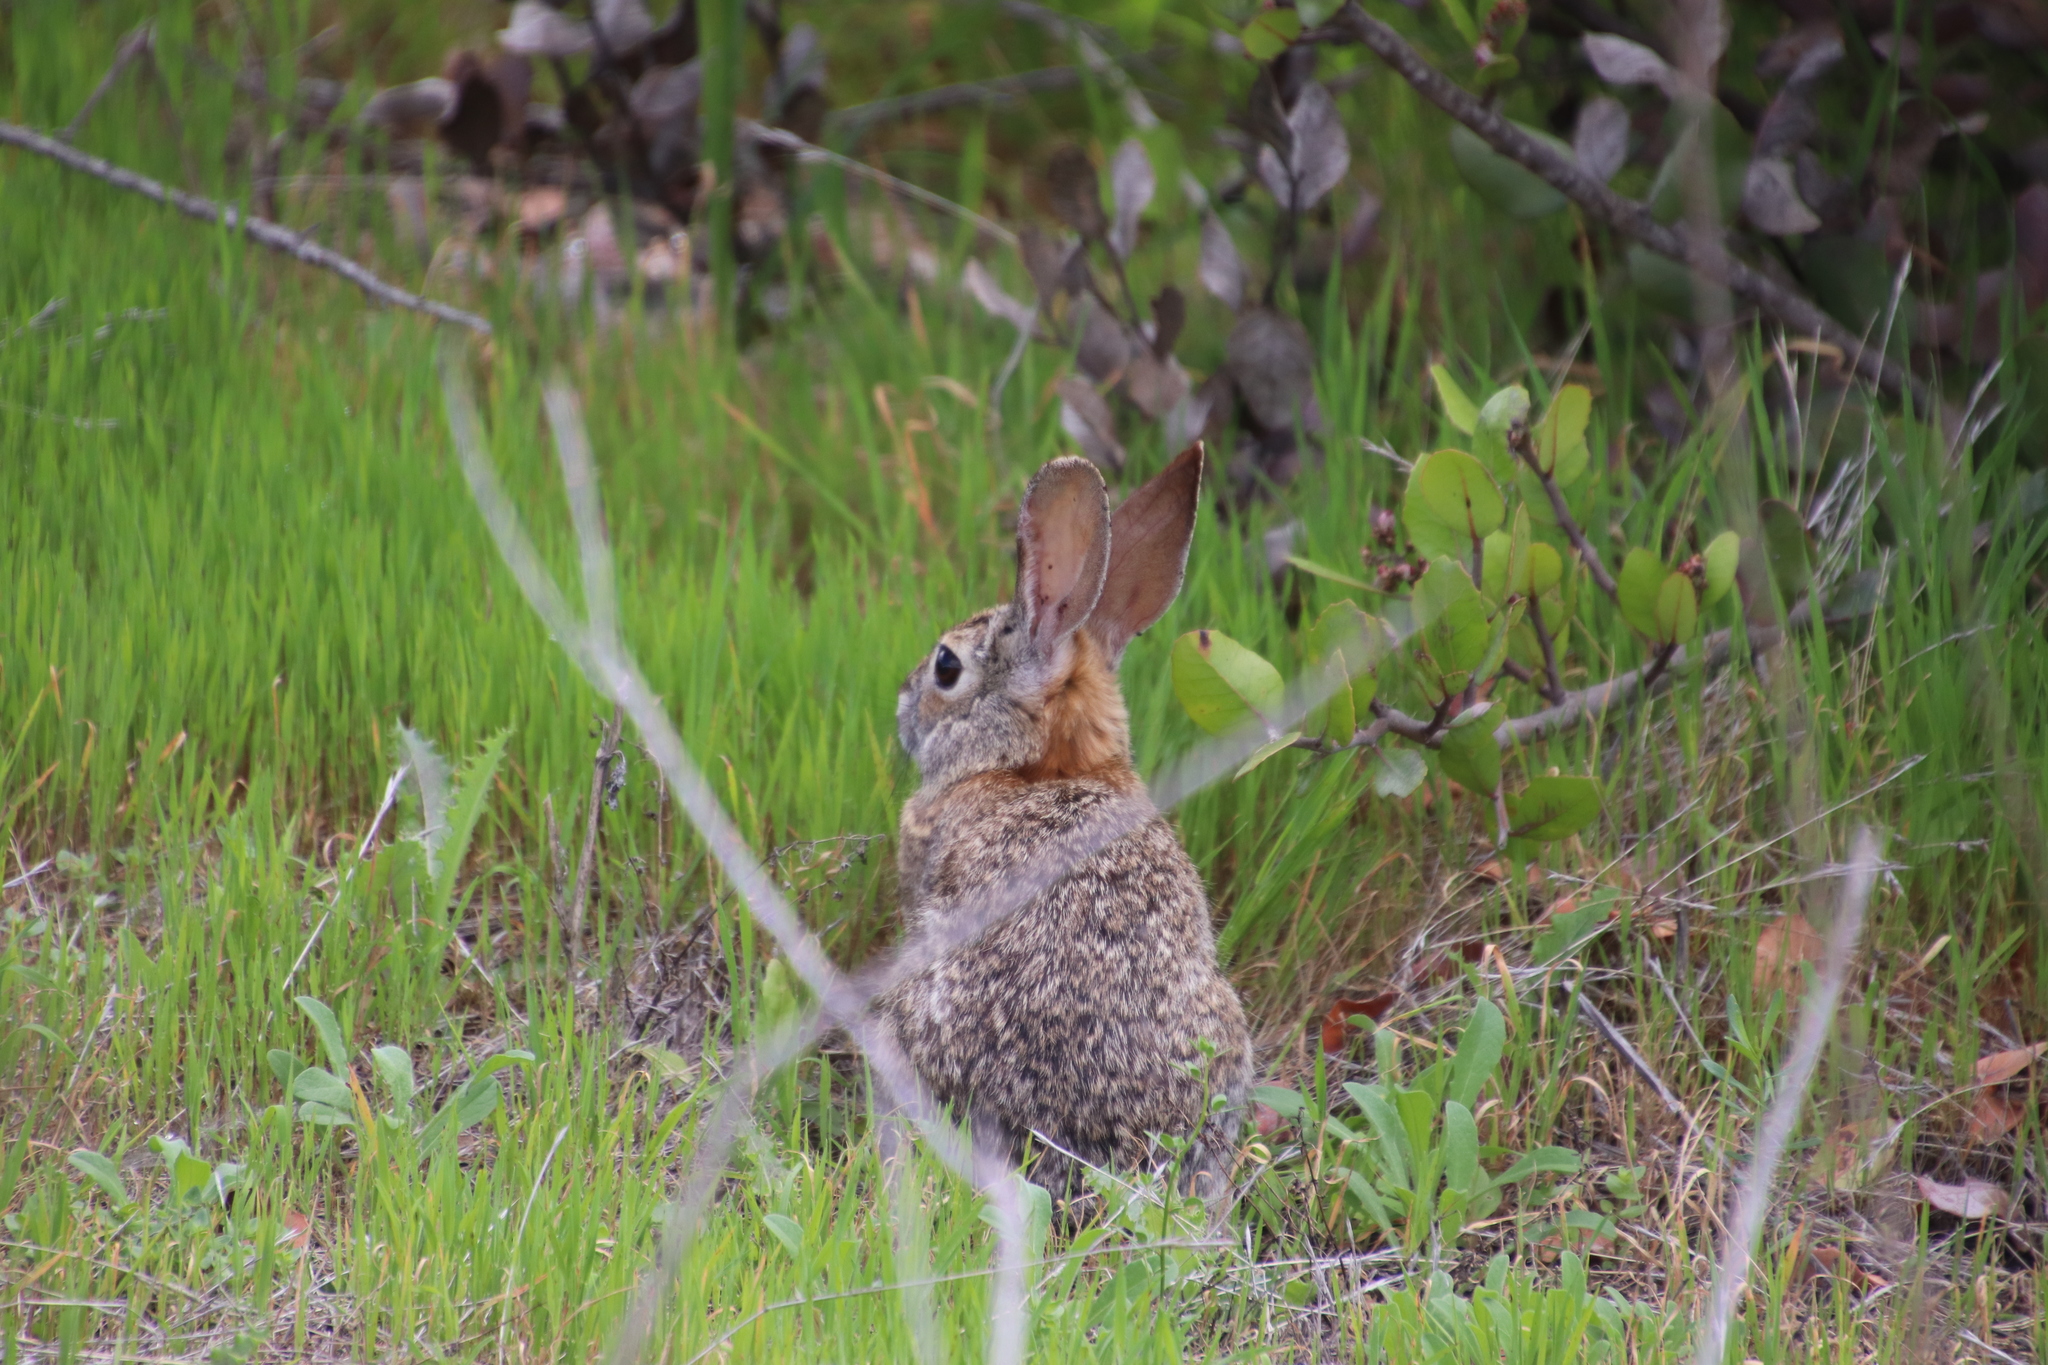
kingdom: Animalia
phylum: Chordata
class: Mammalia
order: Lagomorpha
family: Leporidae
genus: Sylvilagus
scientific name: Sylvilagus audubonii
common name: Desert cottontail
